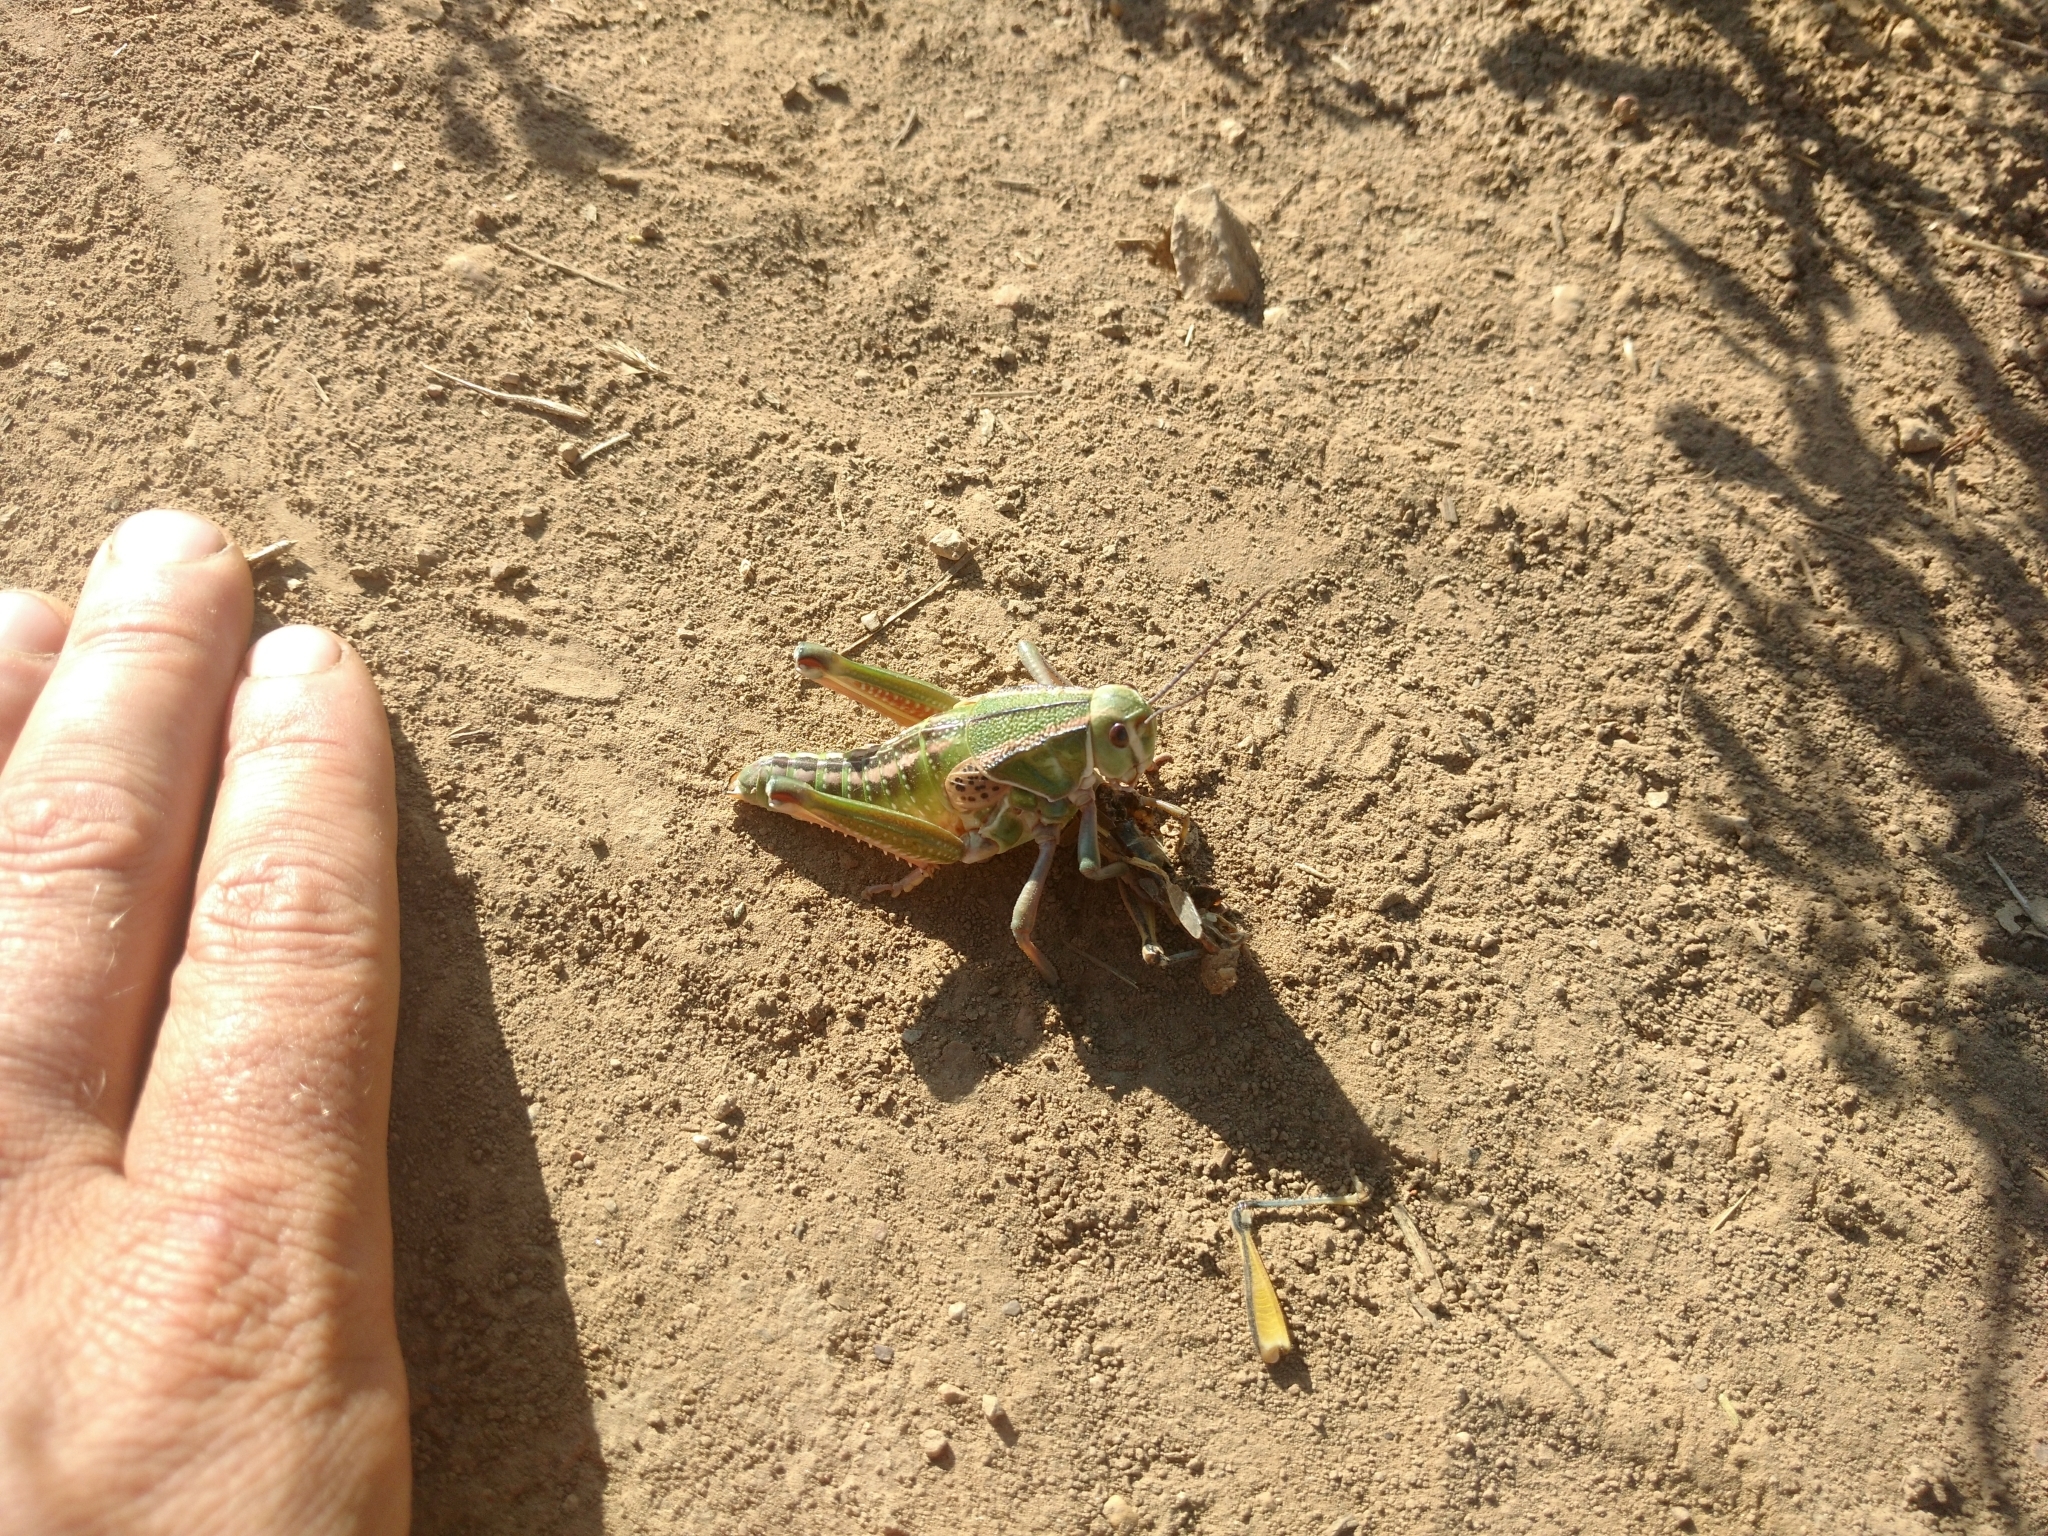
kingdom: Animalia
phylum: Arthropoda
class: Insecta
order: Orthoptera
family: Romaleidae
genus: Brachystola
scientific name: Brachystola magna
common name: Plains lubber grasshopper
